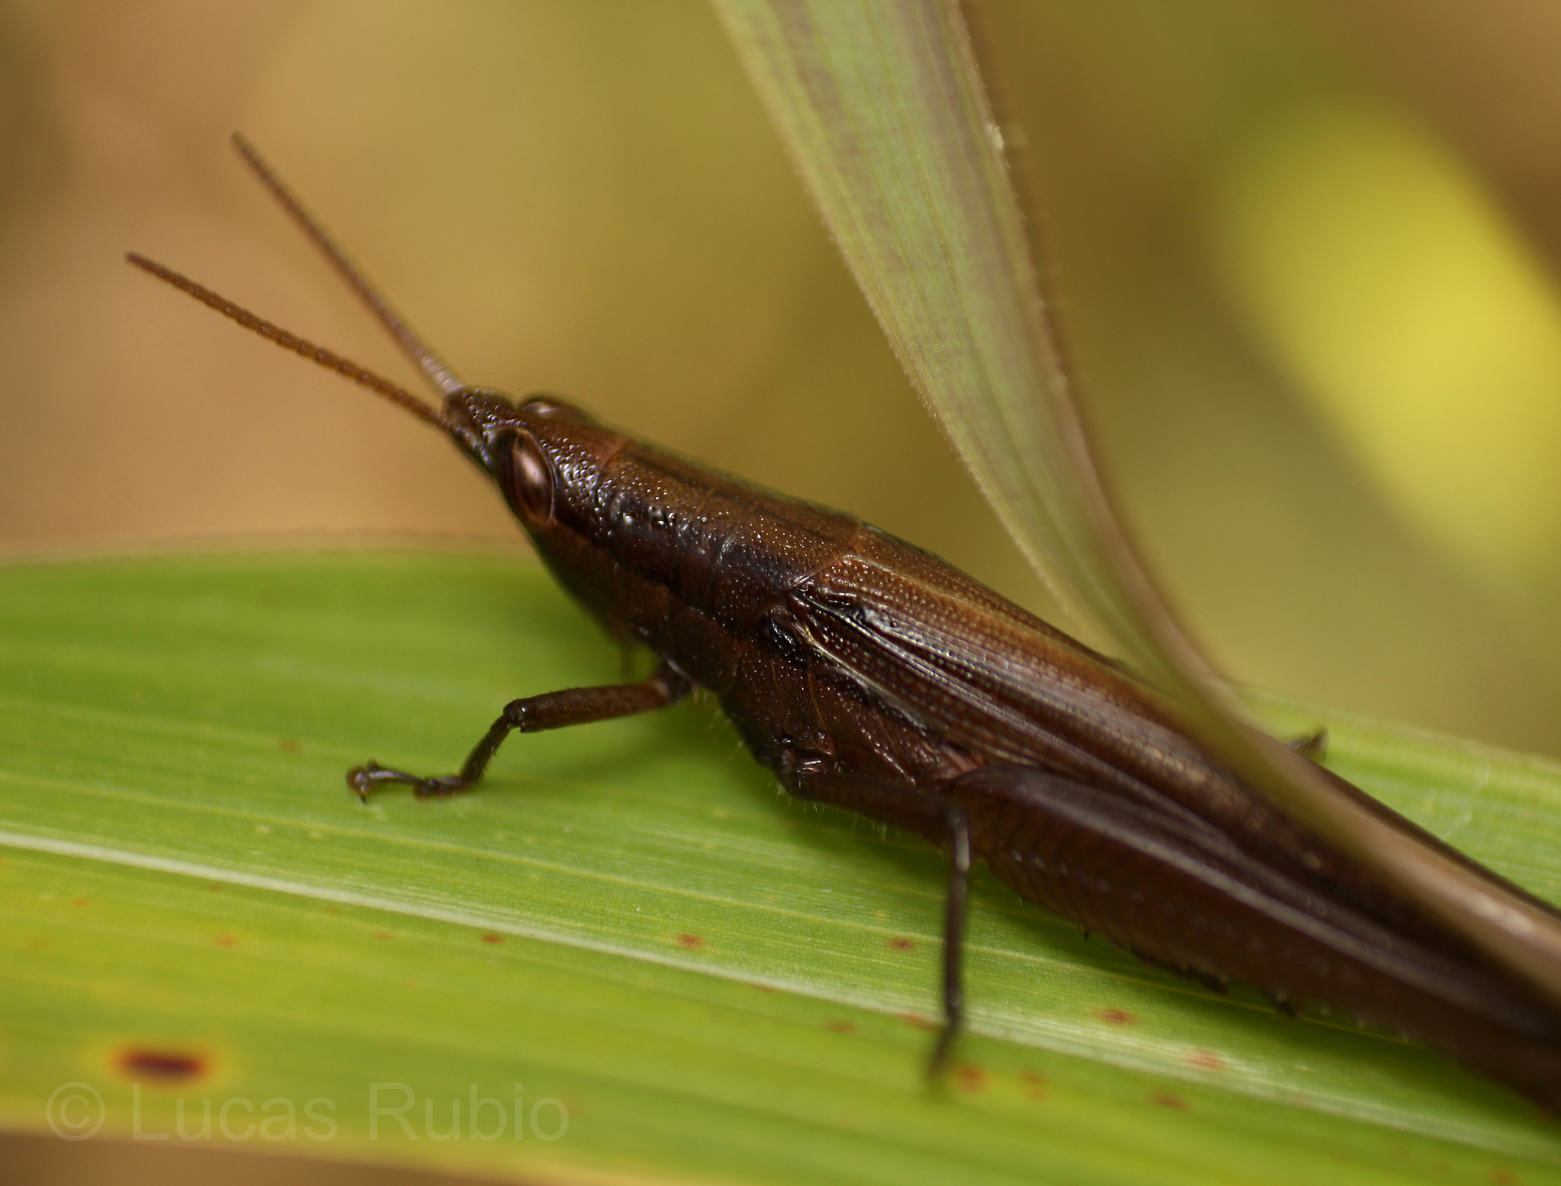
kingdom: Animalia
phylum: Arthropoda
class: Insecta
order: Orthoptera
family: Acrididae
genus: Stenopola
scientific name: Stenopola pallida
